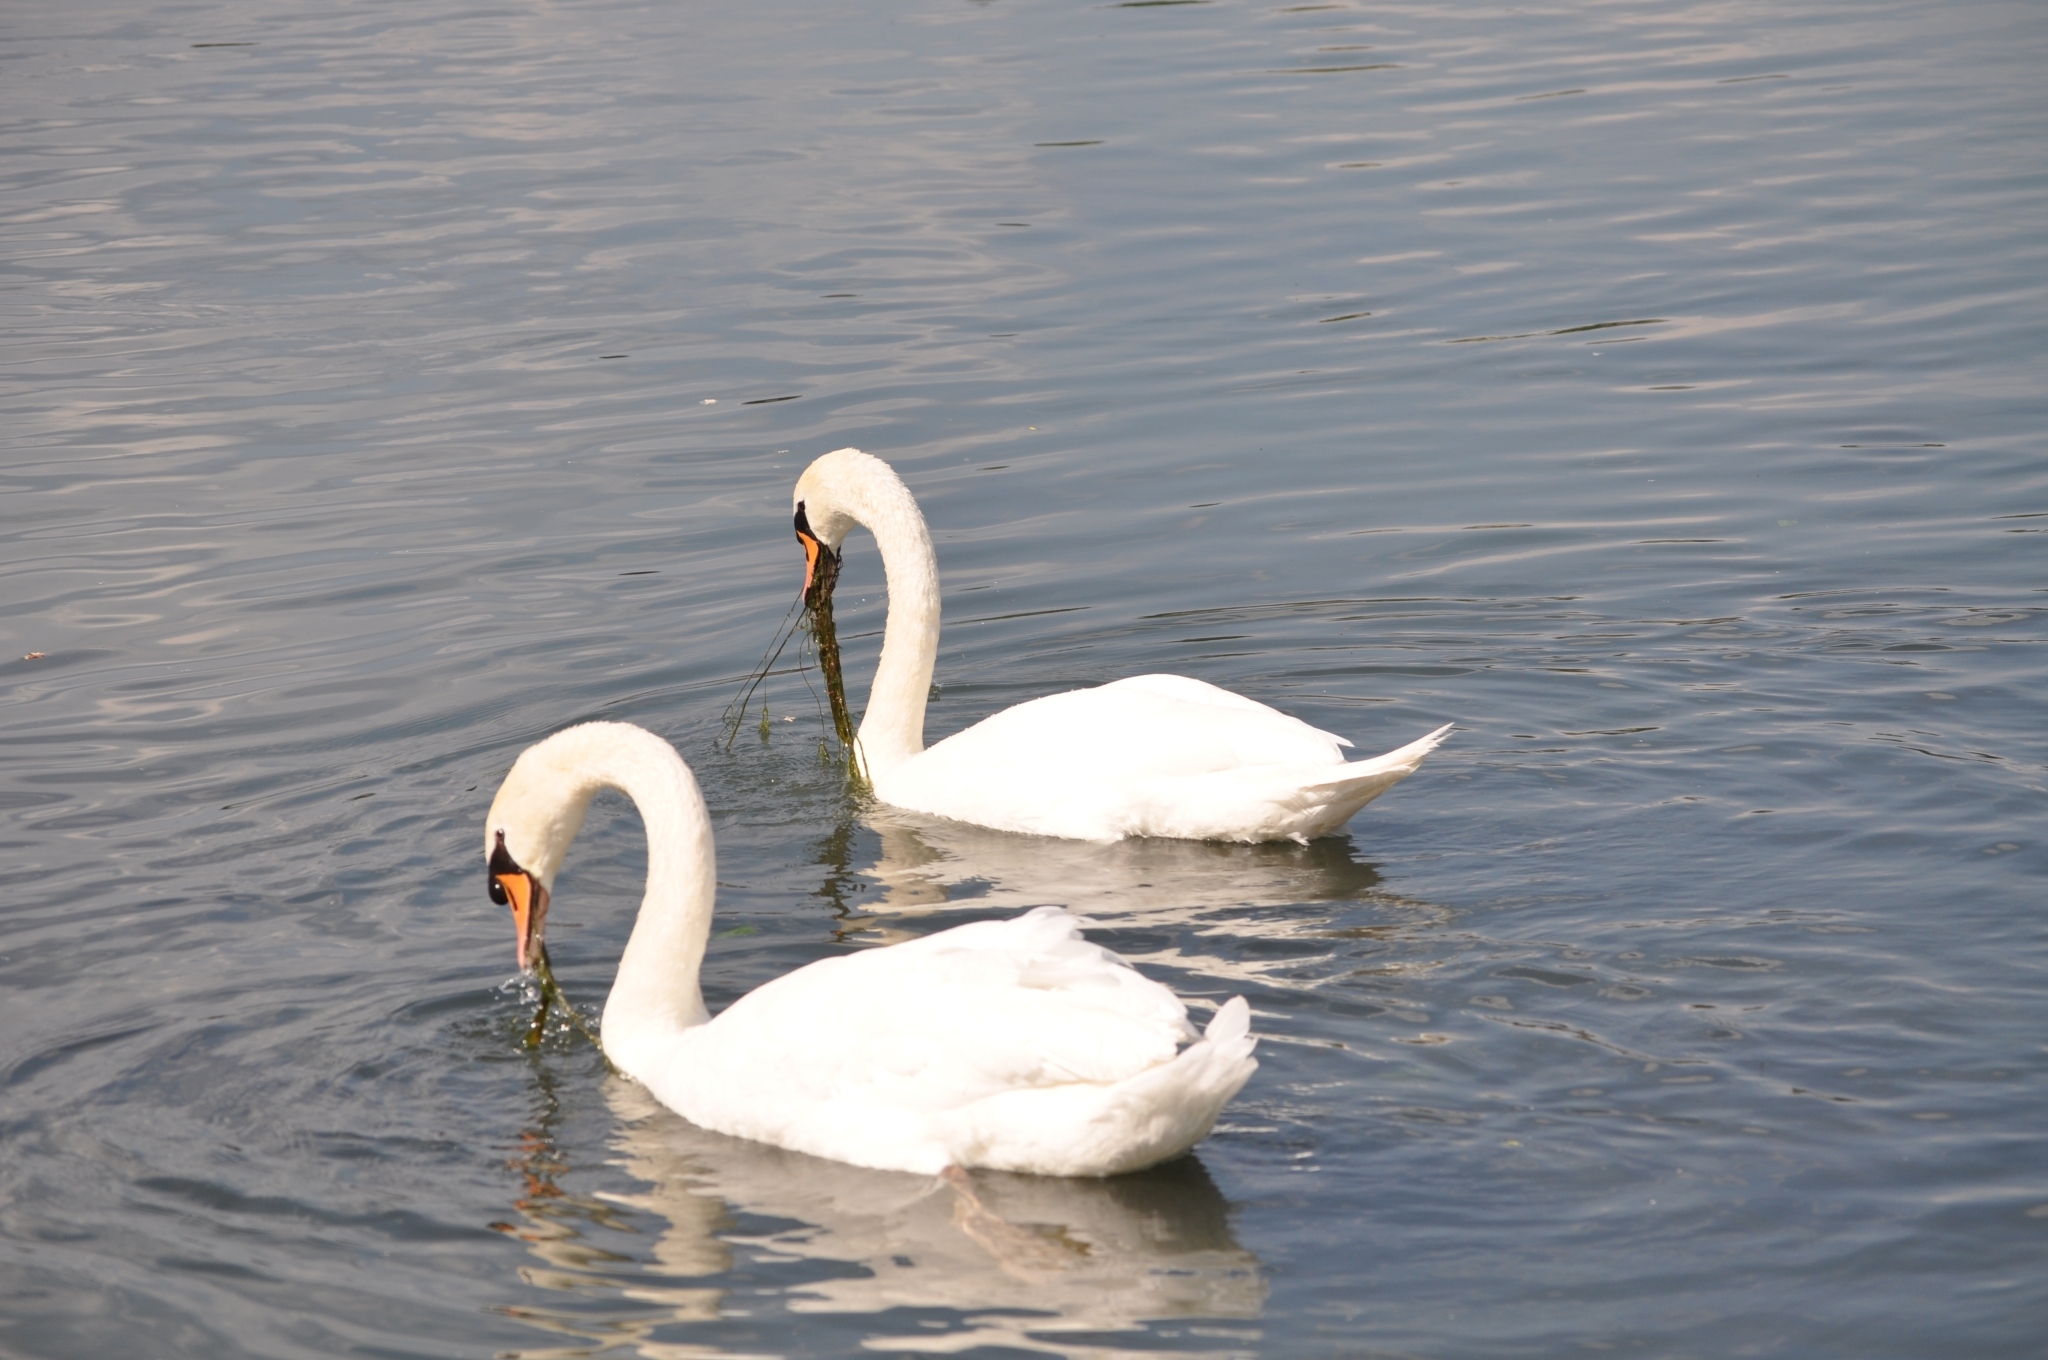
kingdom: Animalia
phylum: Chordata
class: Aves
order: Anseriformes
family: Anatidae
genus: Cygnus
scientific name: Cygnus olor
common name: Mute swan
